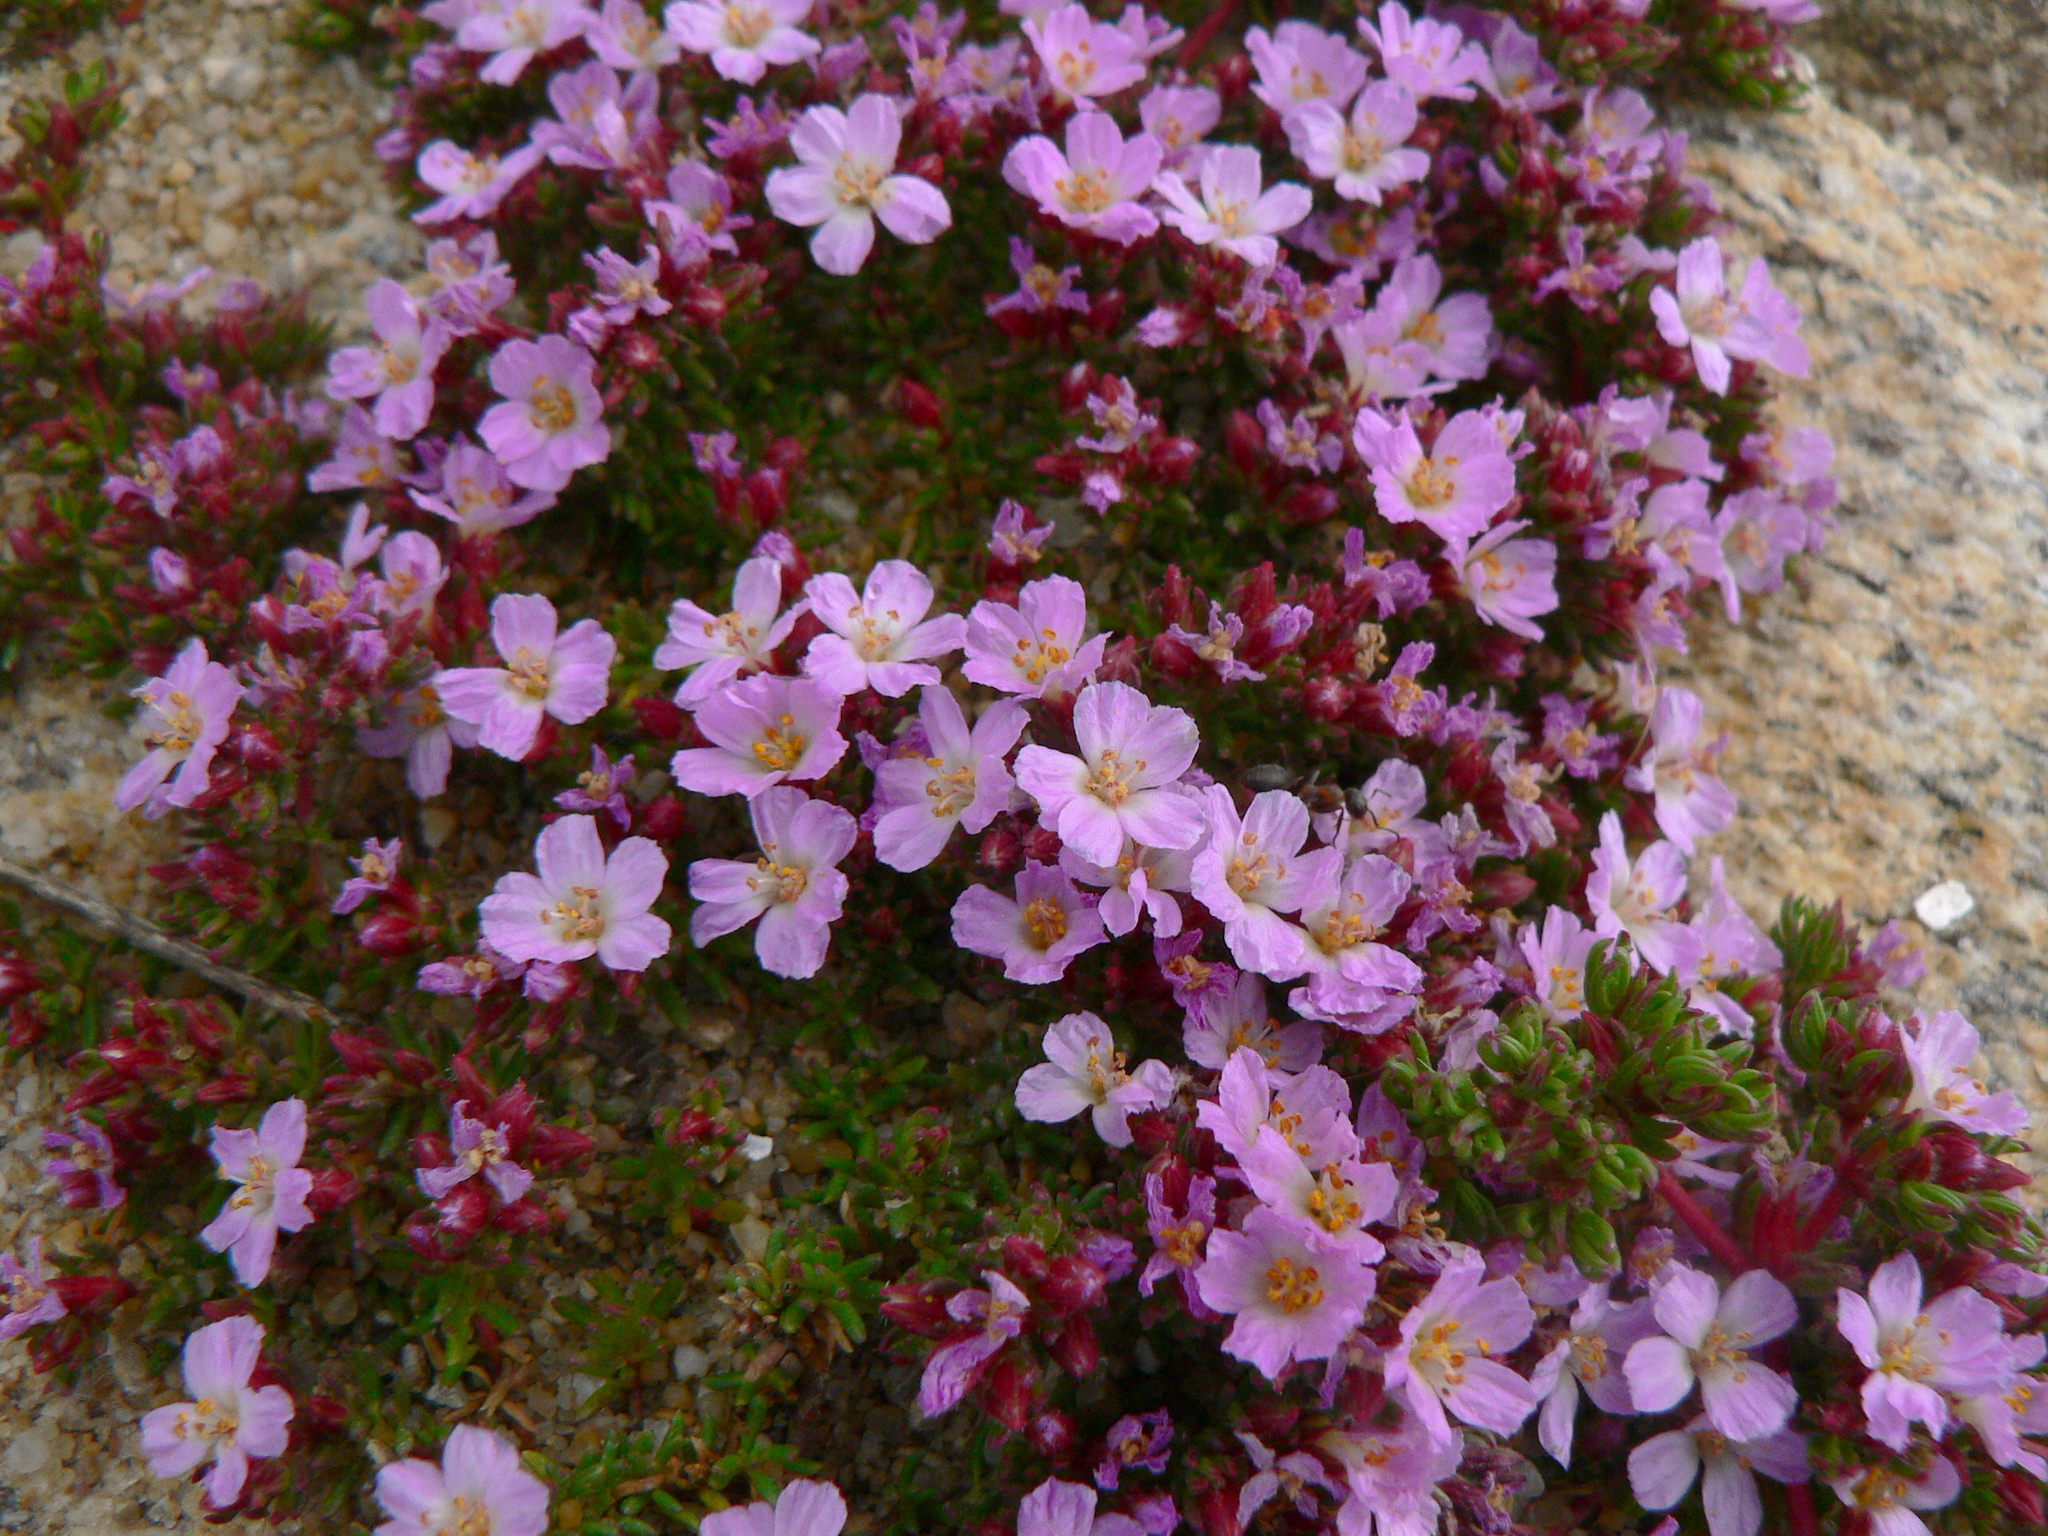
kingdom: Plantae
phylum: Tracheophyta
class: Magnoliopsida
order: Caryophyllales
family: Frankeniaceae
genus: Frankenia
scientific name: Frankenia laevis
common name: Sea-heath
